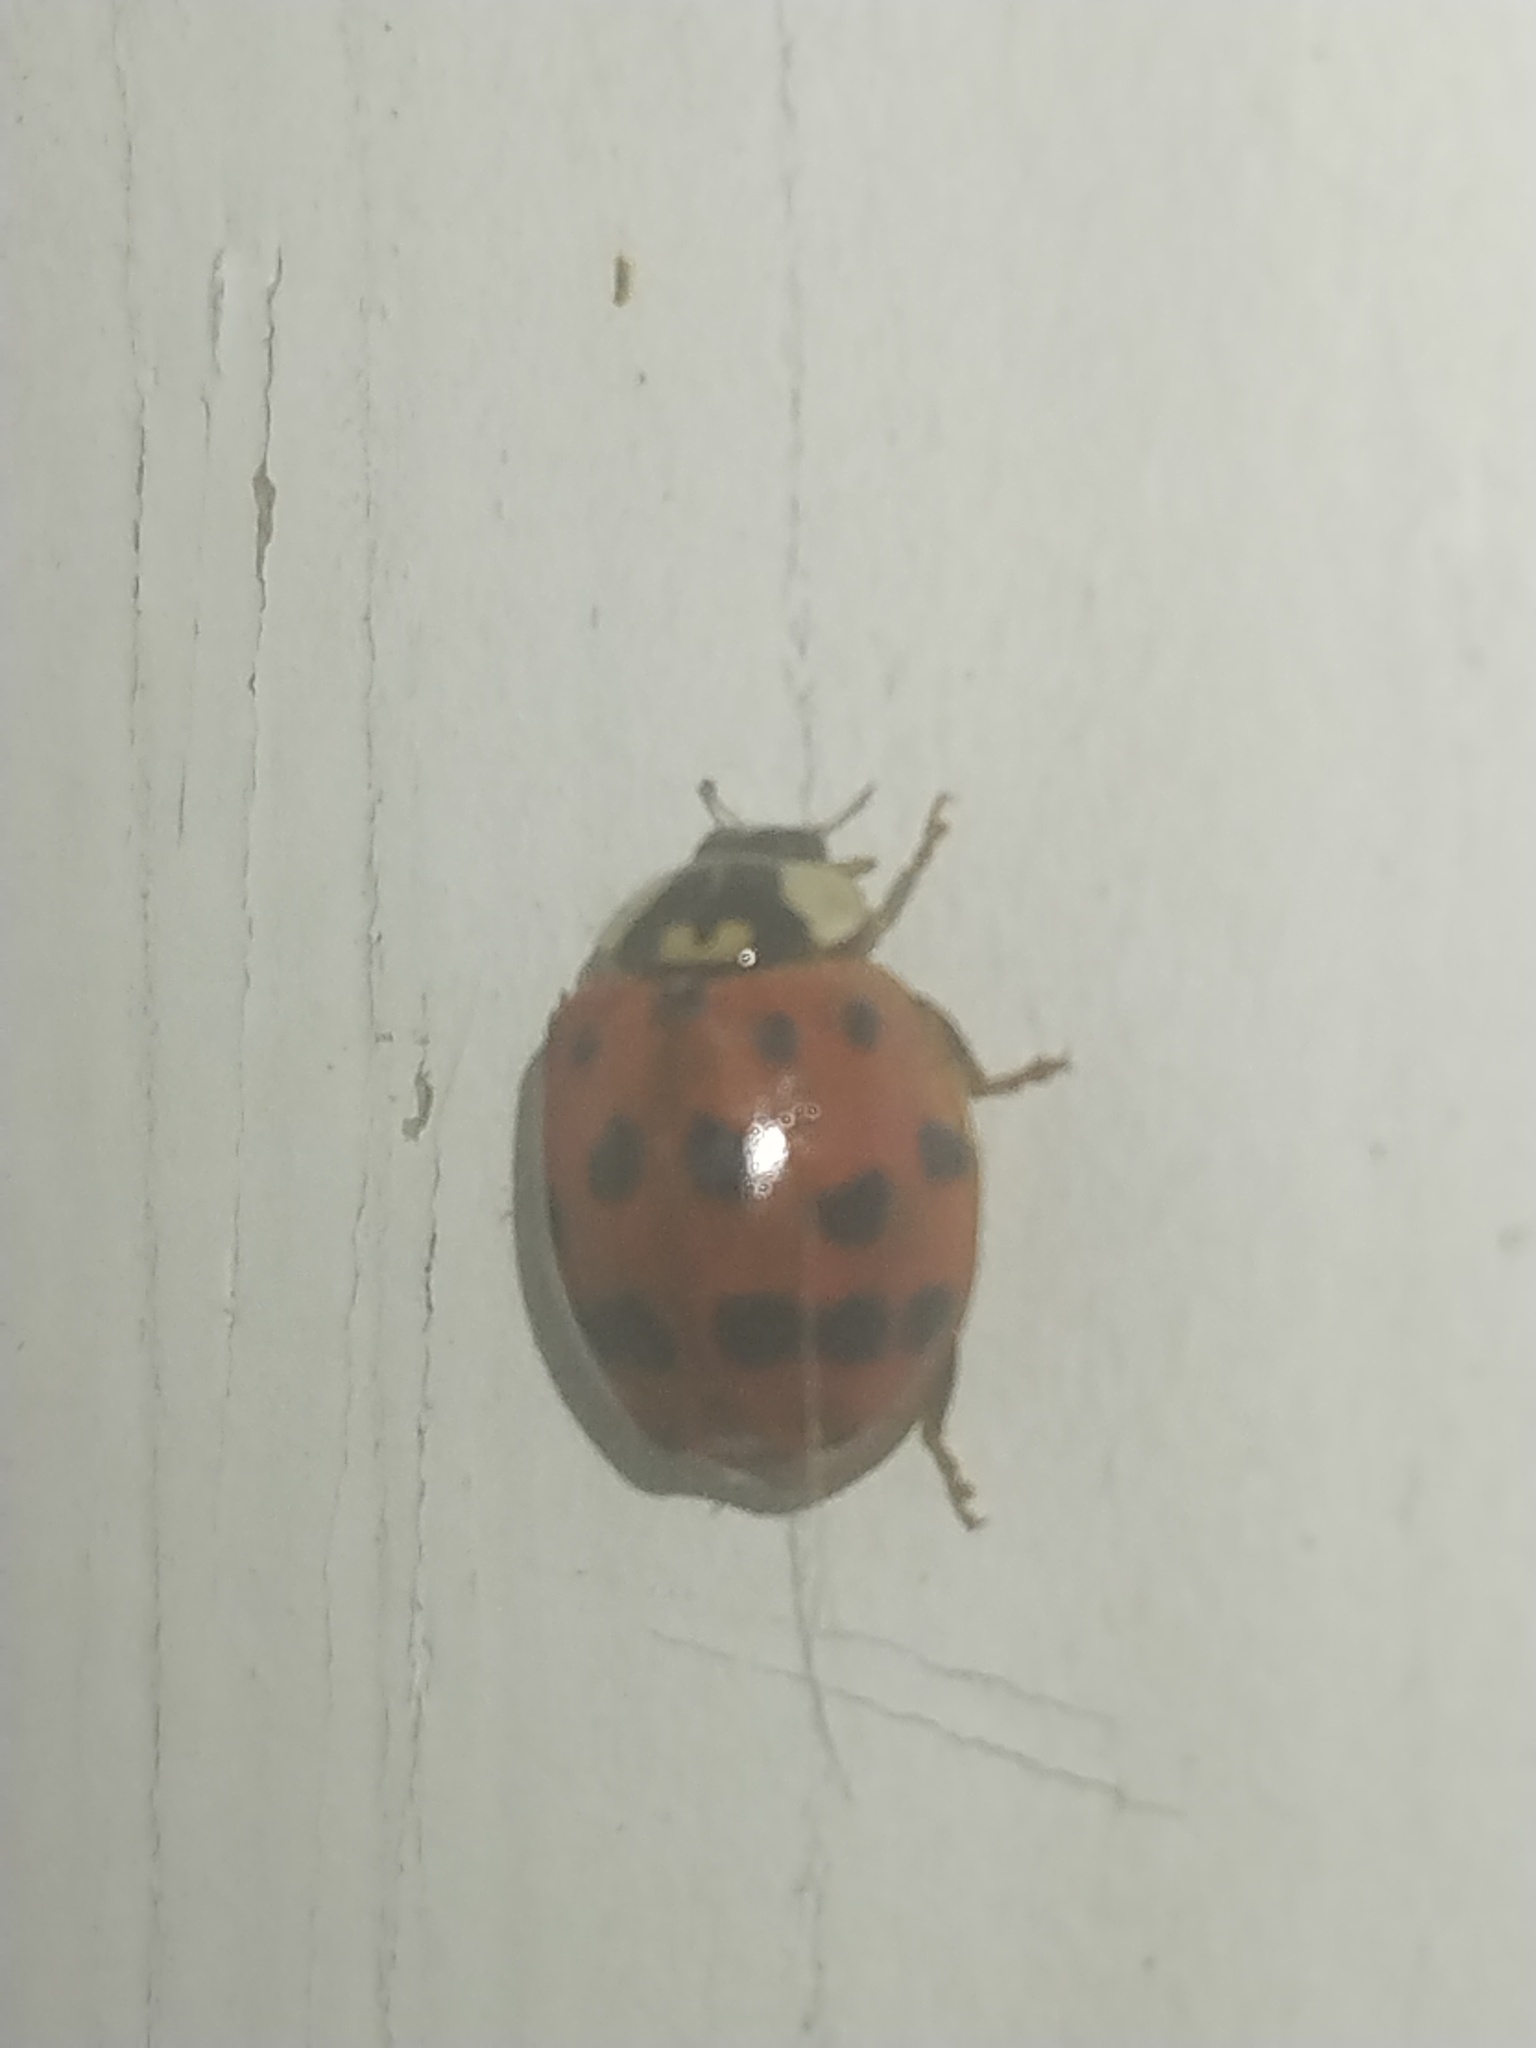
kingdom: Animalia
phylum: Arthropoda
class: Insecta
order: Coleoptera
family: Coccinellidae
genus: Harmonia
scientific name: Harmonia axyridis
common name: Harlequin ladybird
